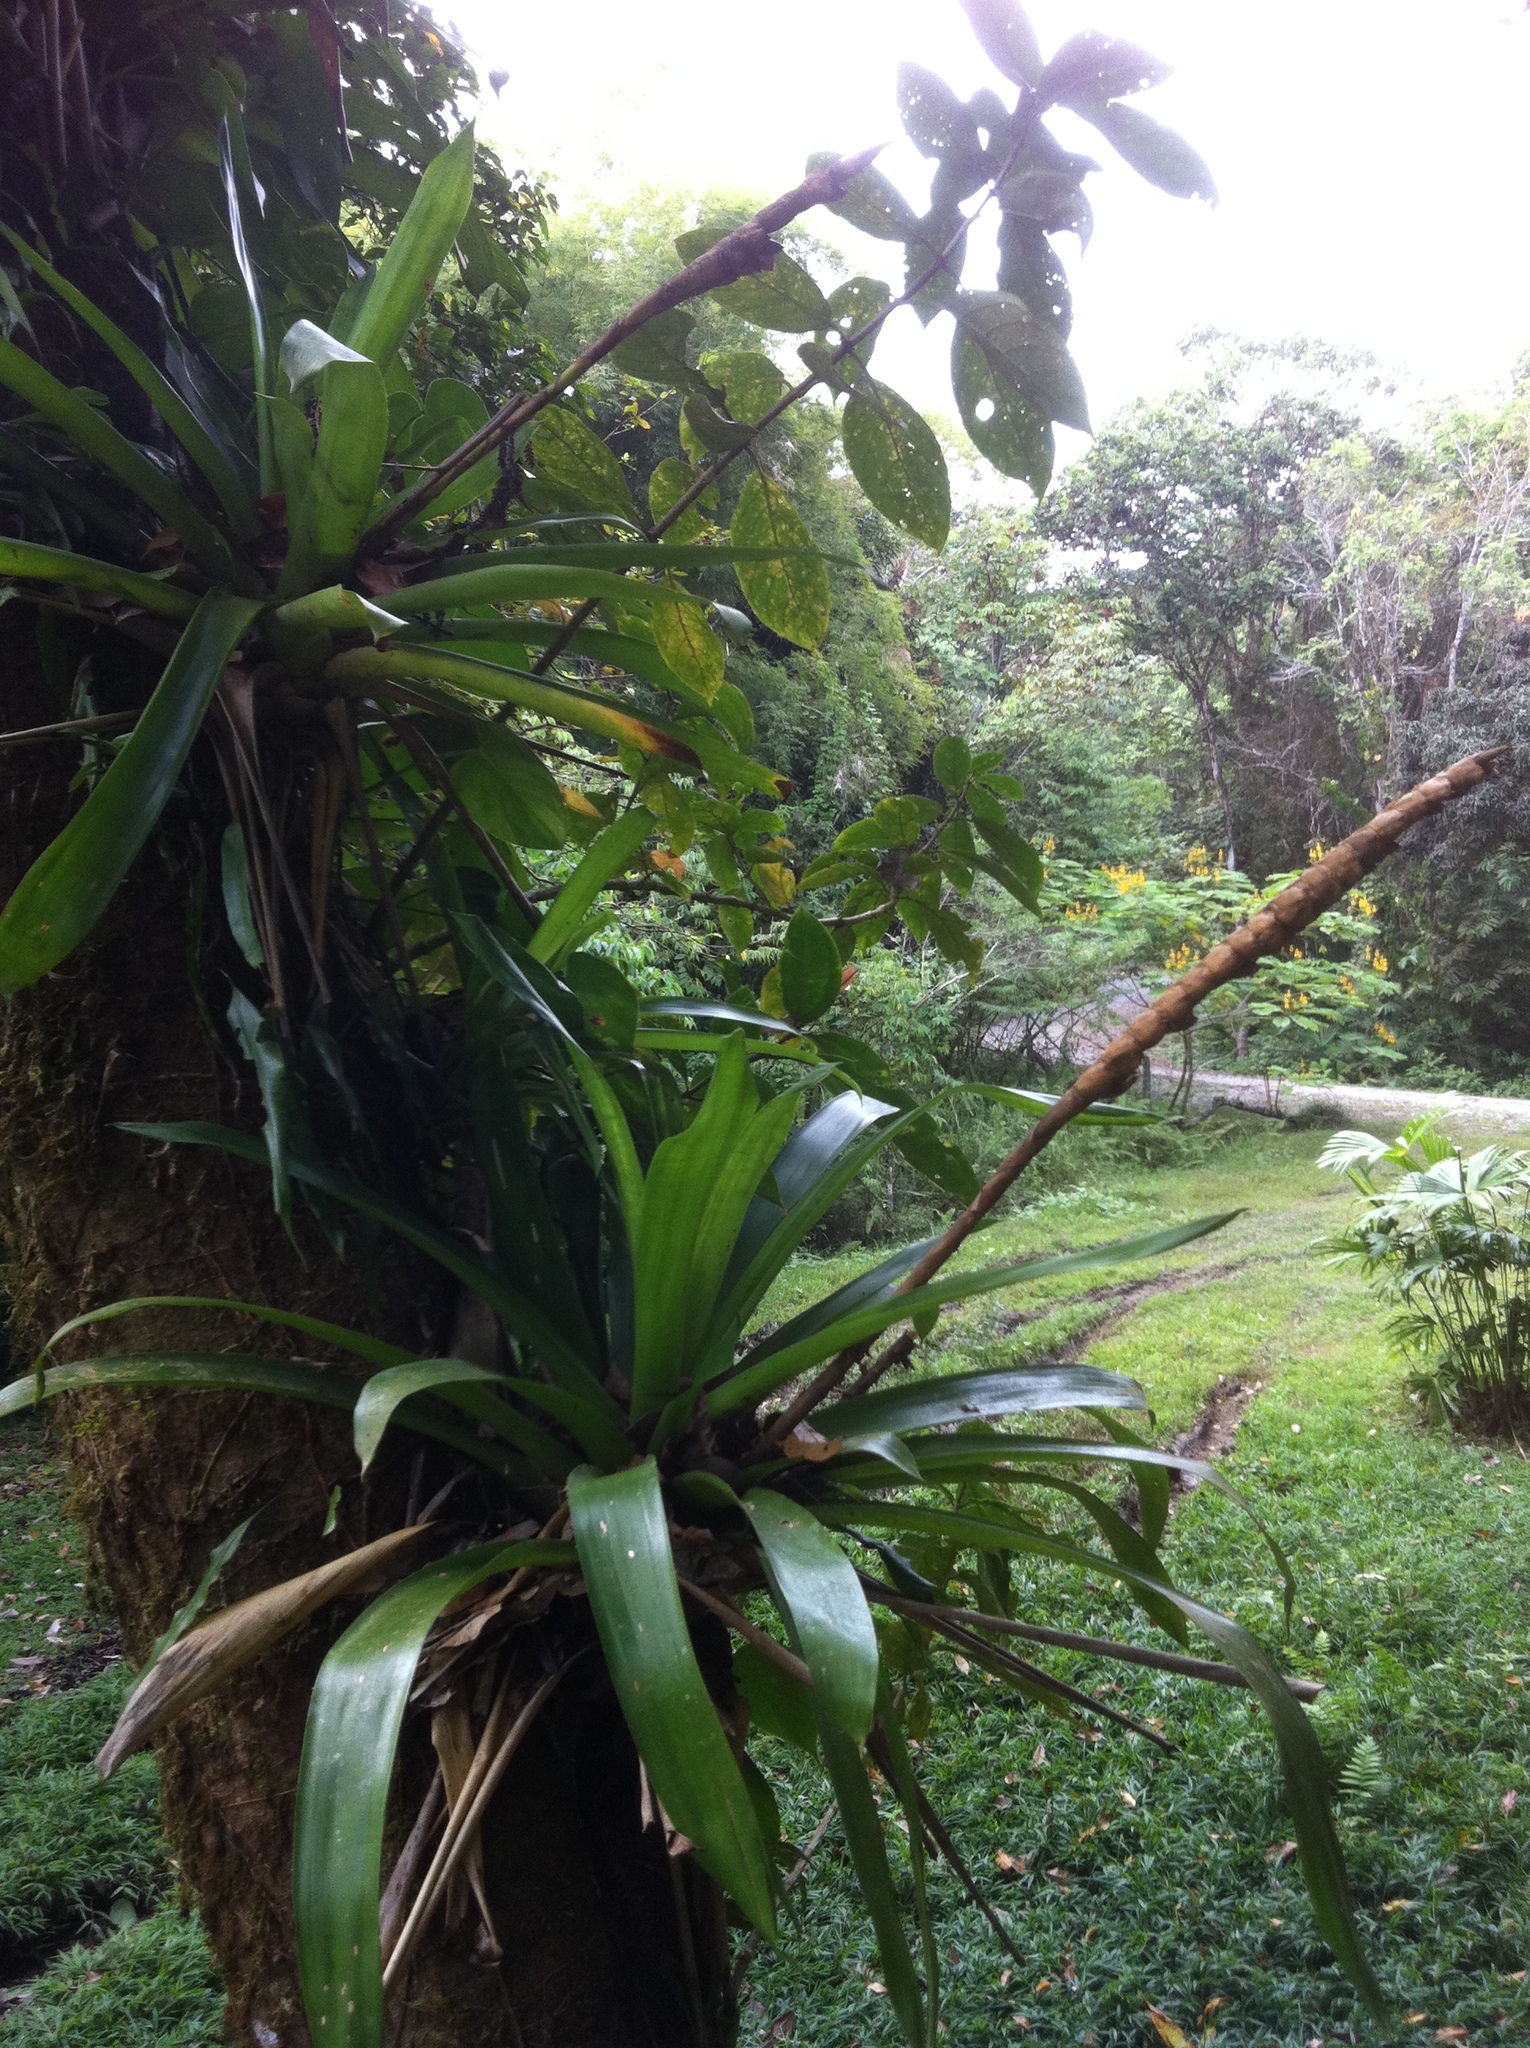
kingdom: Plantae
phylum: Tracheophyta
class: Liliopsida
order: Poales
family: Bromeliaceae
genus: Werauhia
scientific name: Werauhia gladioliflora
